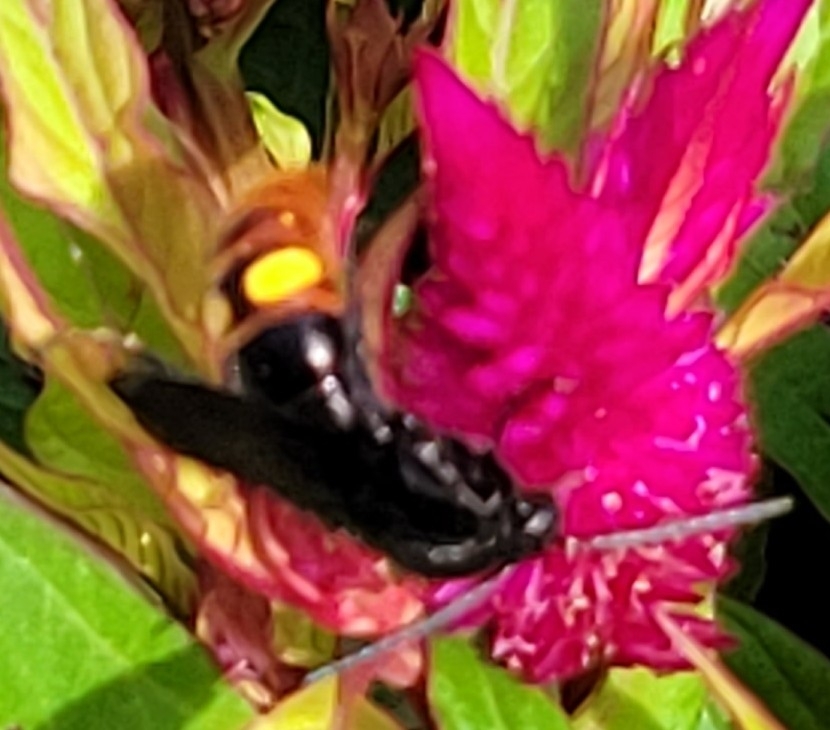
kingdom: Animalia
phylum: Arthropoda
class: Insecta
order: Hymenoptera
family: Scoliidae
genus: Scolia
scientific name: Scolia dubia
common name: Blue-winged scoliid wasp
